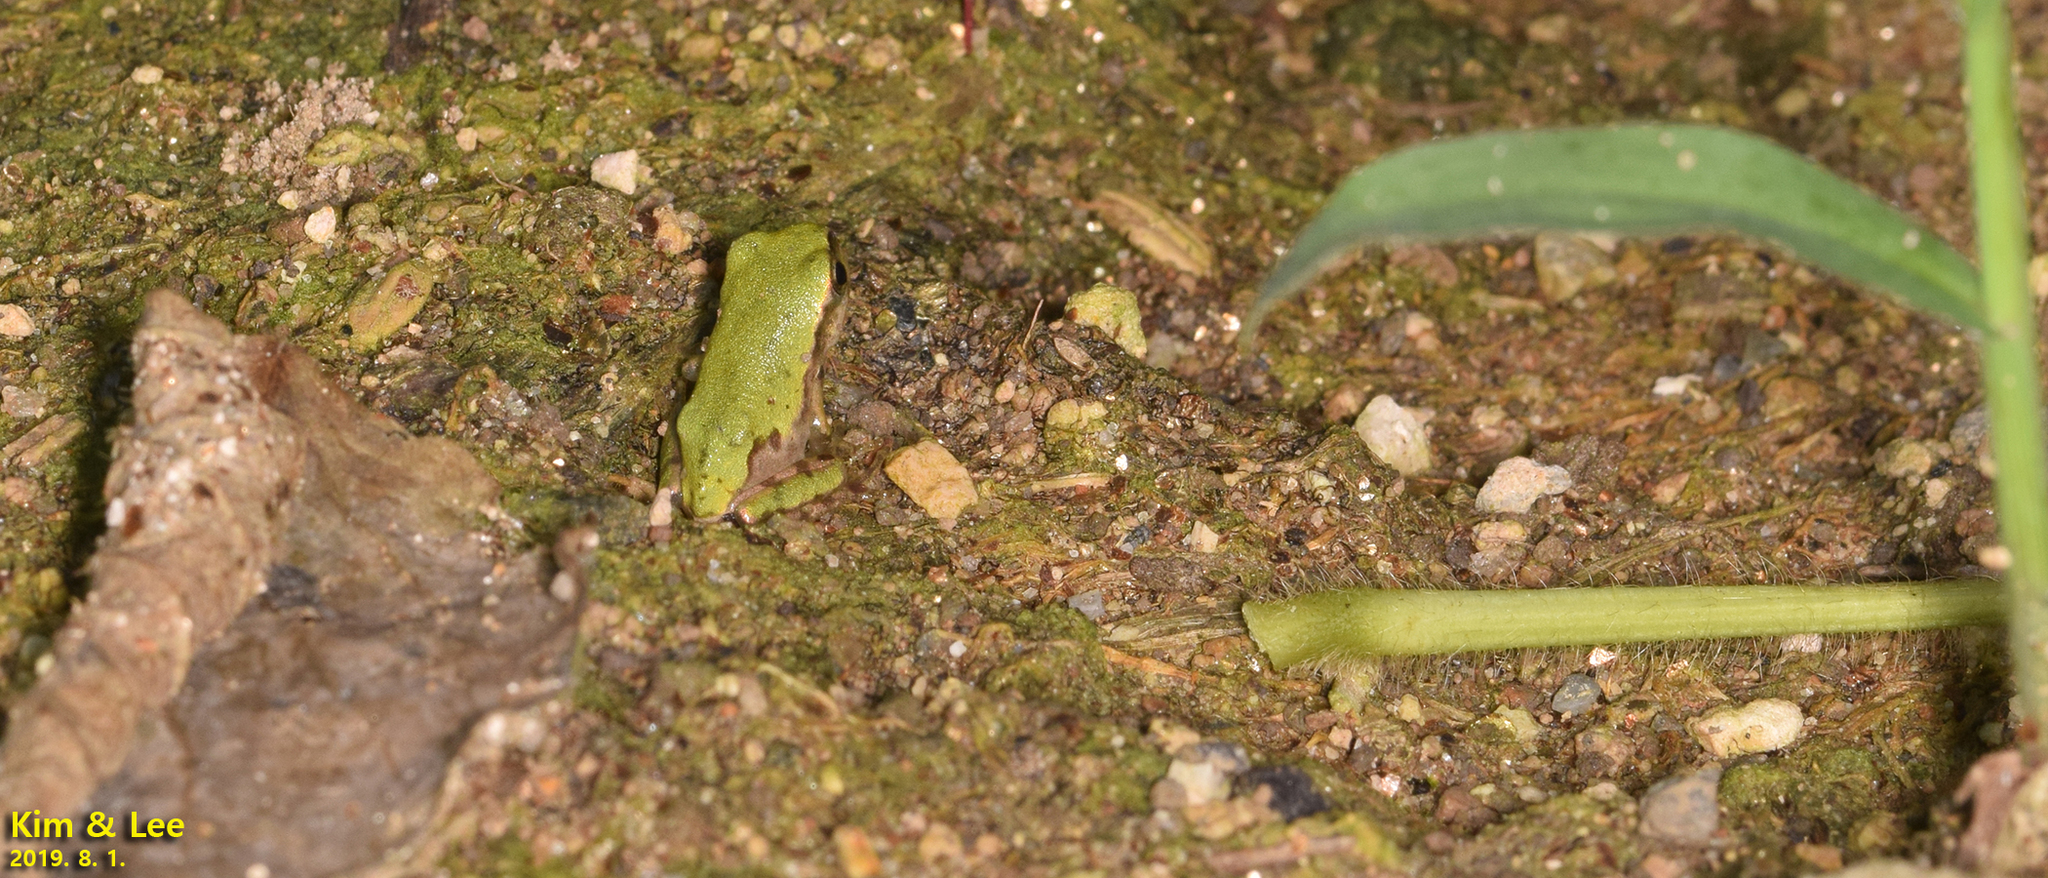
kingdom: Animalia
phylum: Chordata
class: Amphibia
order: Anura
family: Hylidae
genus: Dryophytes
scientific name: Dryophytes japonicus
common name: Japanese treefrog
